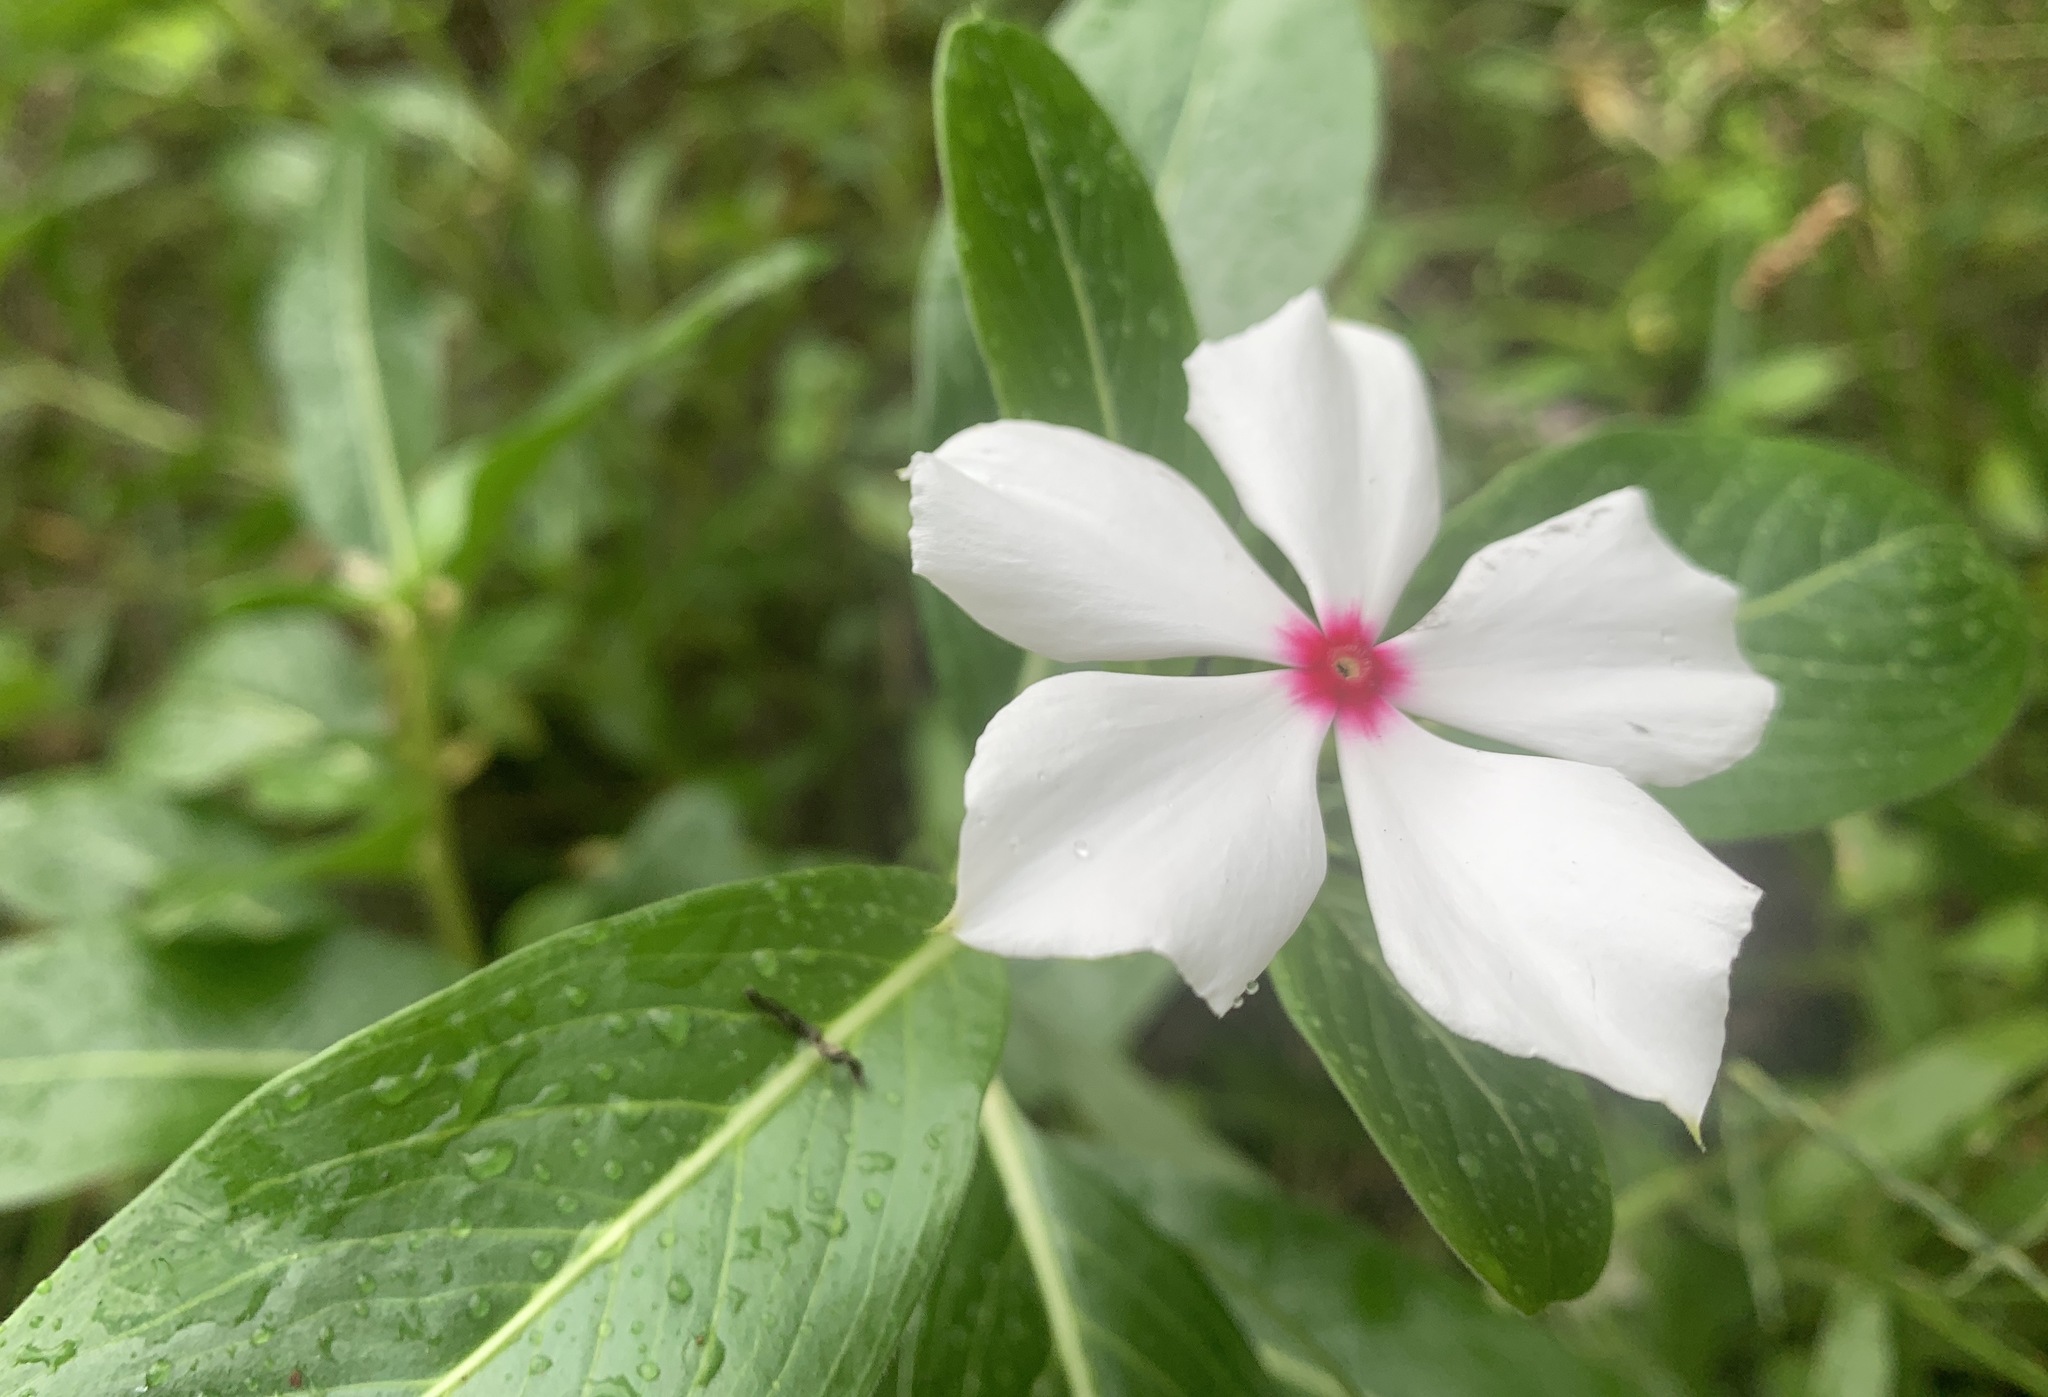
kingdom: Plantae
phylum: Tracheophyta
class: Magnoliopsida
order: Gentianales
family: Apocynaceae
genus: Catharanthus
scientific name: Catharanthus roseus
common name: Madagascar periwinkle
